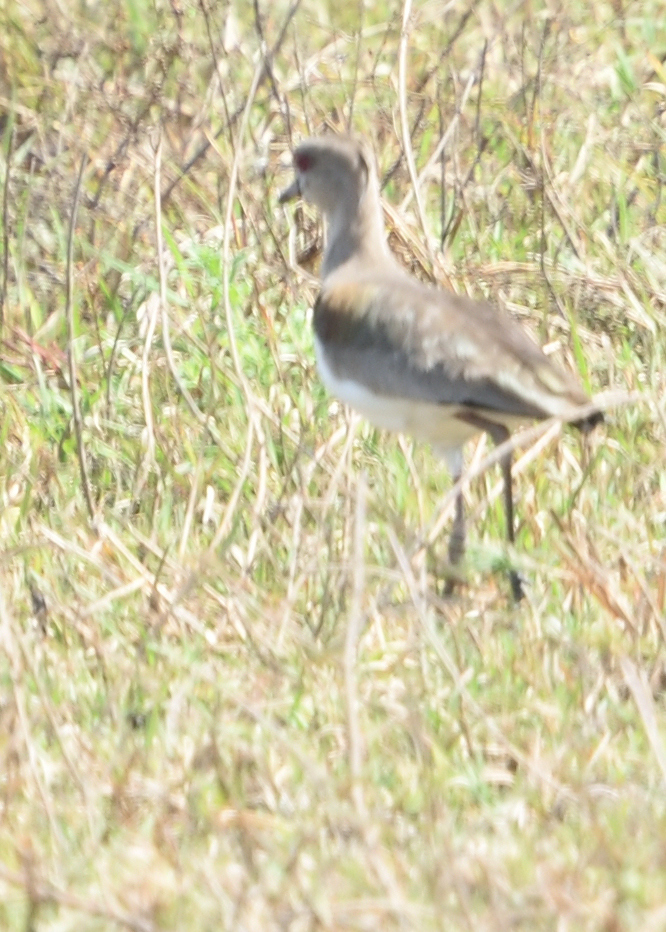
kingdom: Animalia
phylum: Chordata
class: Aves
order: Charadriiformes
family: Charadriidae
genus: Vanellus
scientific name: Vanellus chilensis
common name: Southern lapwing
